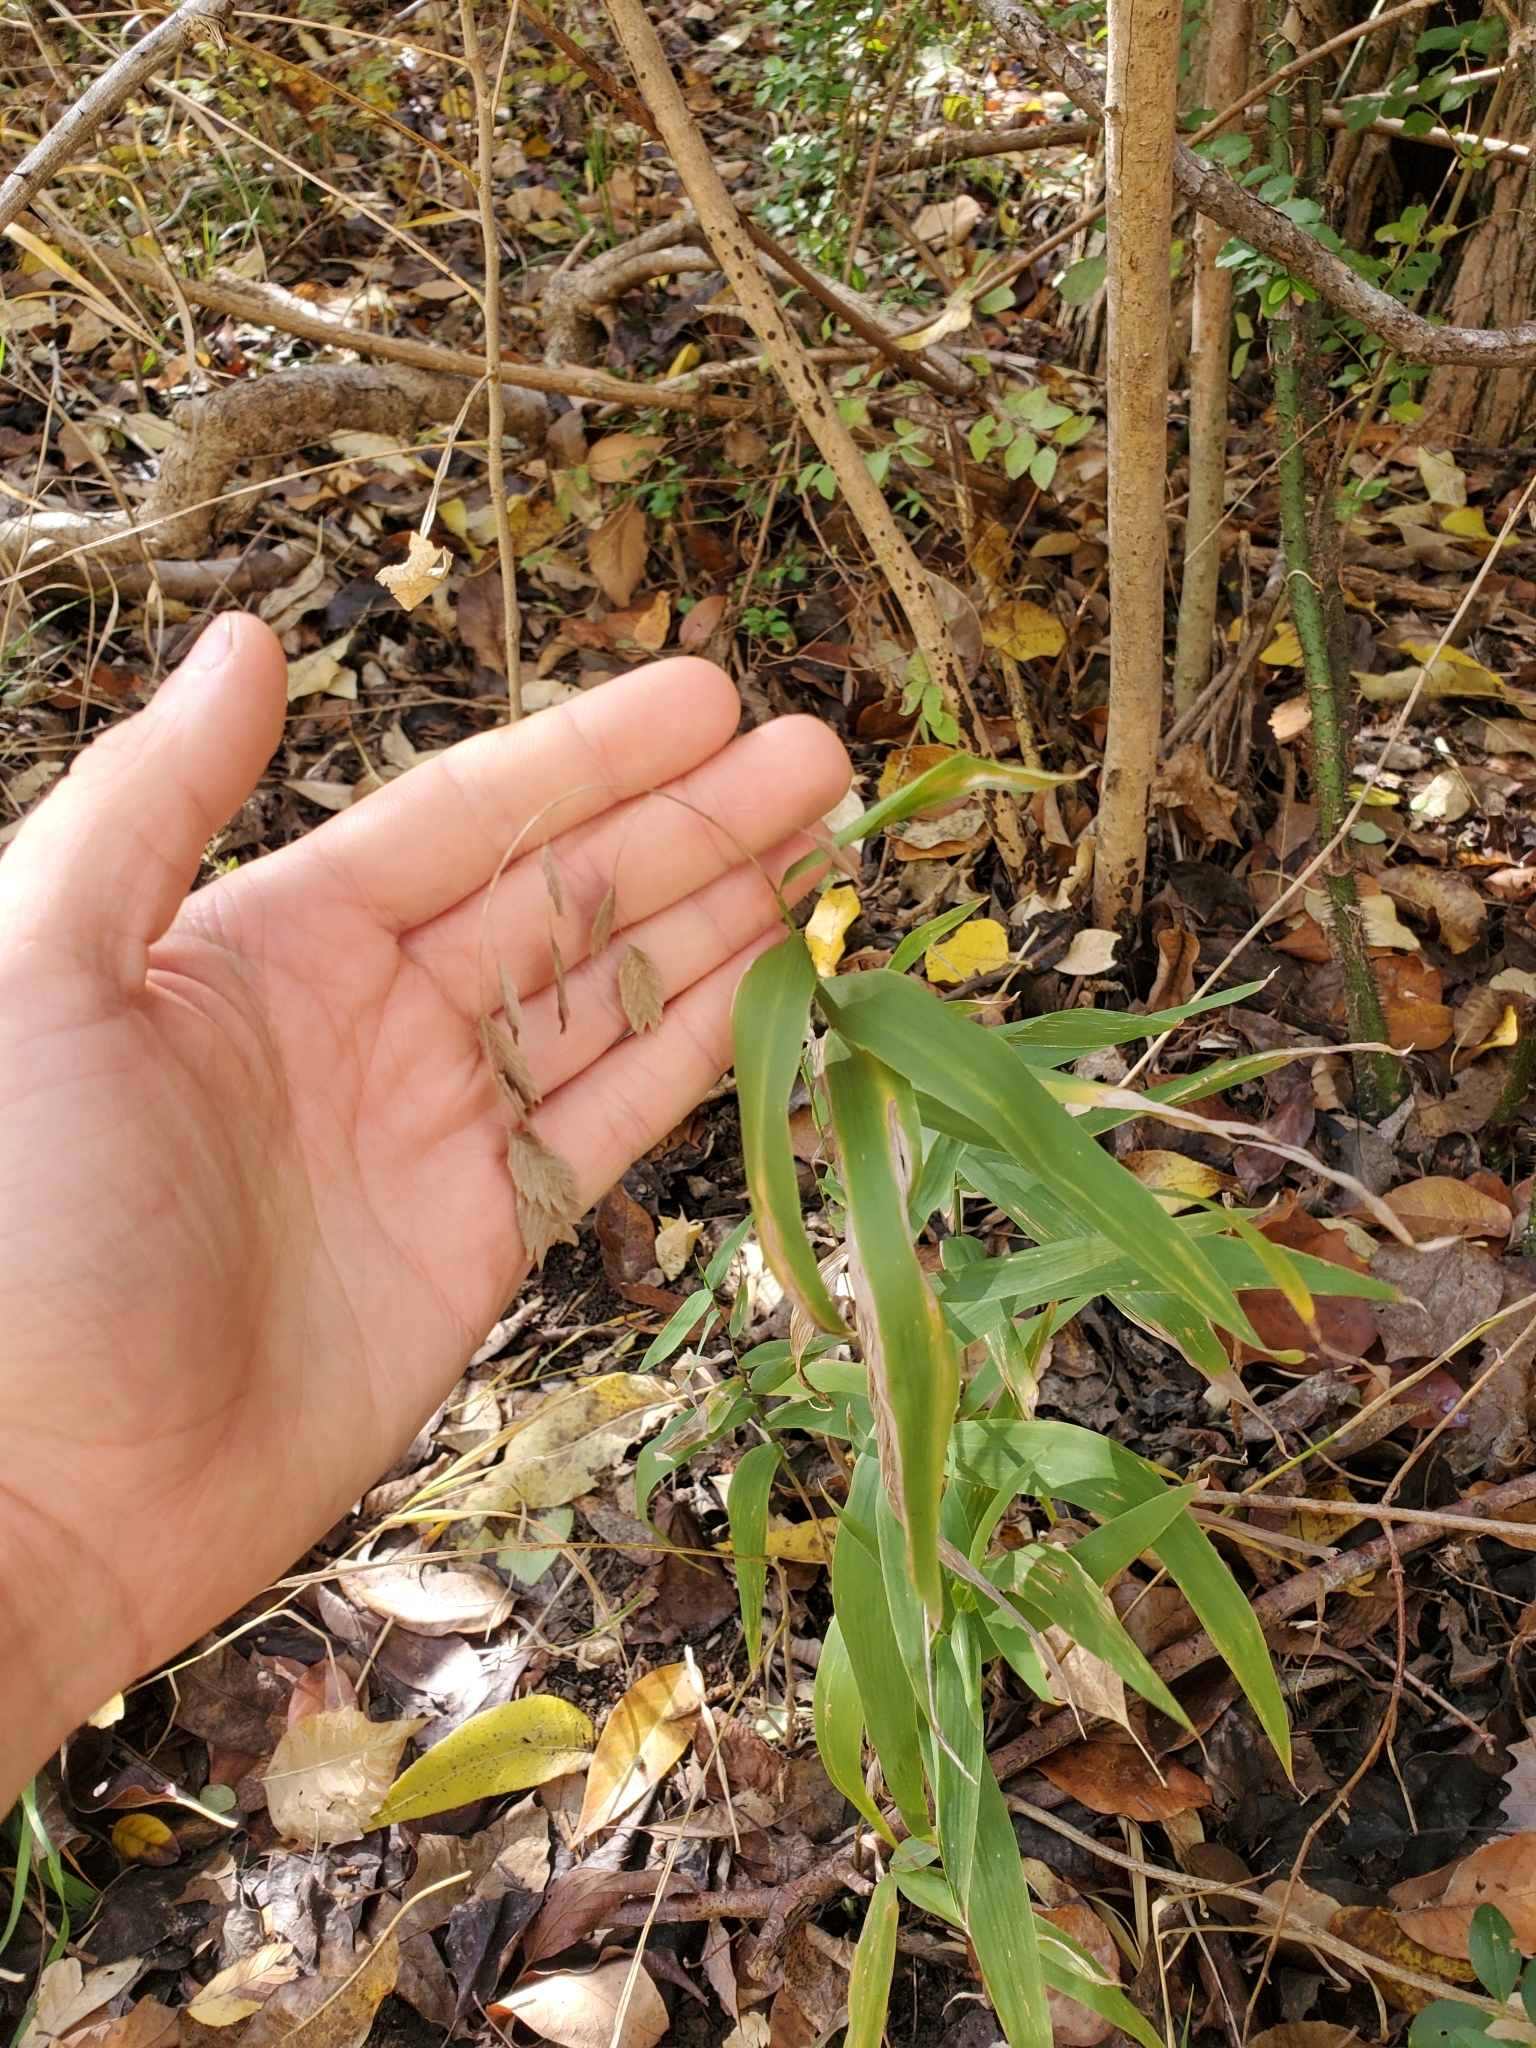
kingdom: Plantae
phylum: Tracheophyta
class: Liliopsida
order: Poales
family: Poaceae
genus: Chasmanthium
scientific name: Chasmanthium latifolium
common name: Broad-leaved chasmanthium
